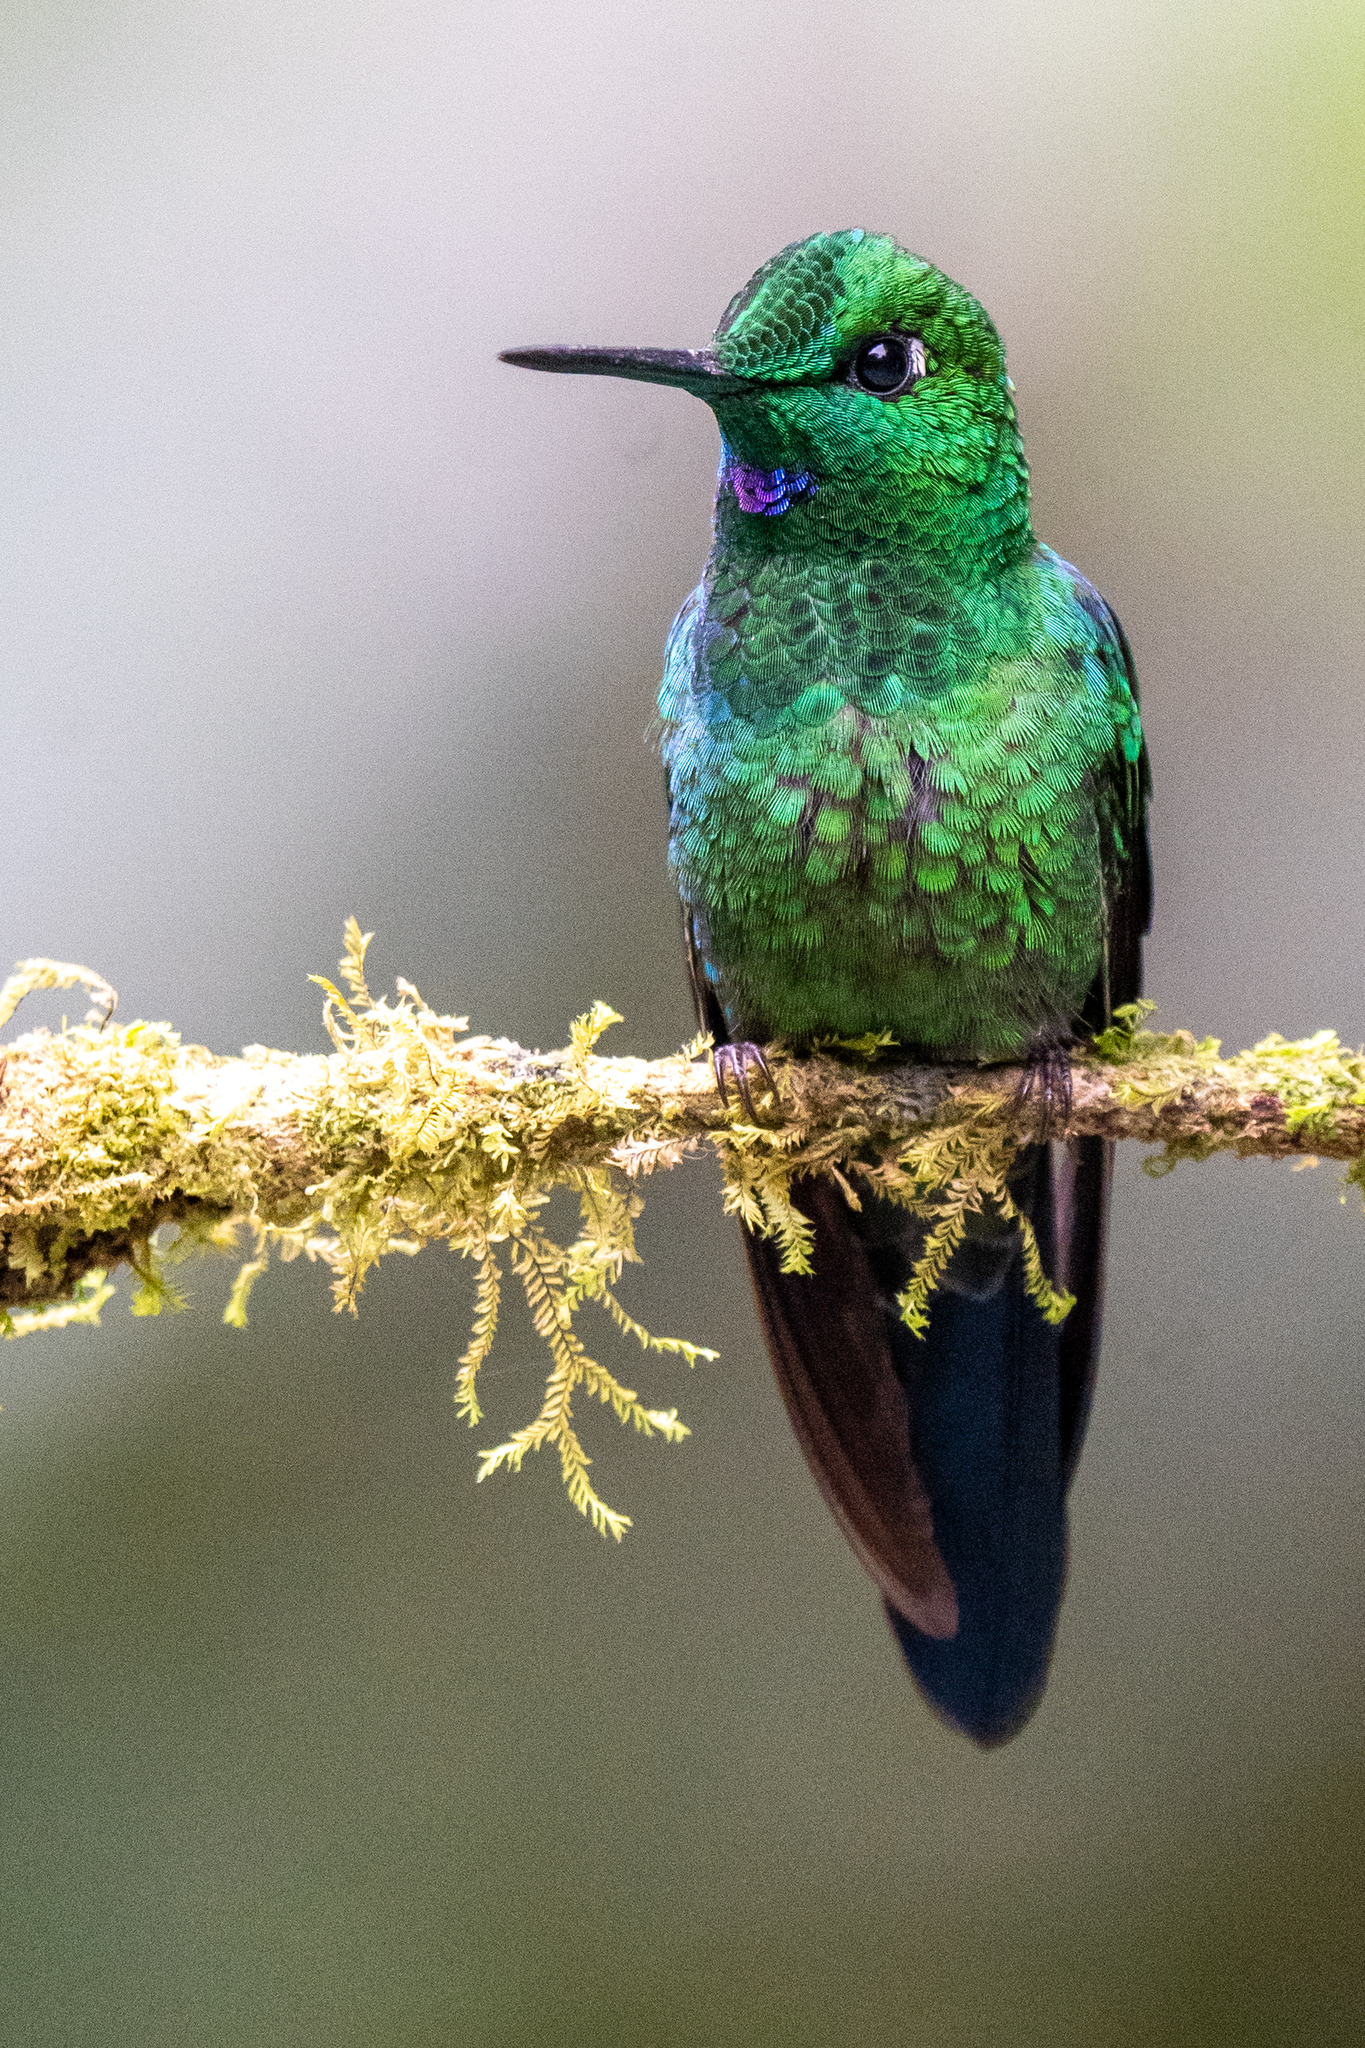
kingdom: Animalia
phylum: Chordata
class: Aves
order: Apodiformes
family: Trochilidae
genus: Heliodoxa
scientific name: Heliodoxa jacula
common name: Green-crowned brilliant
